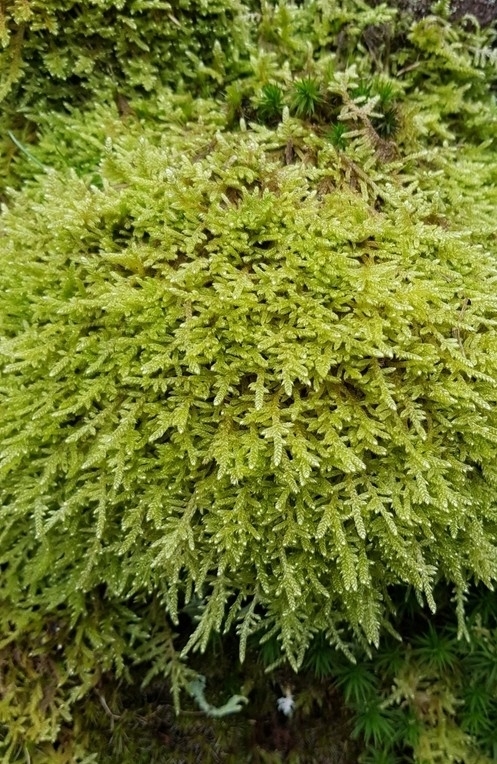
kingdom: Plantae
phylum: Bryophyta
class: Bryopsida
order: Hypnales
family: Hypnaceae
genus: Hypnum
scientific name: Hypnum jutlandicum
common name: Heath plait-moss
